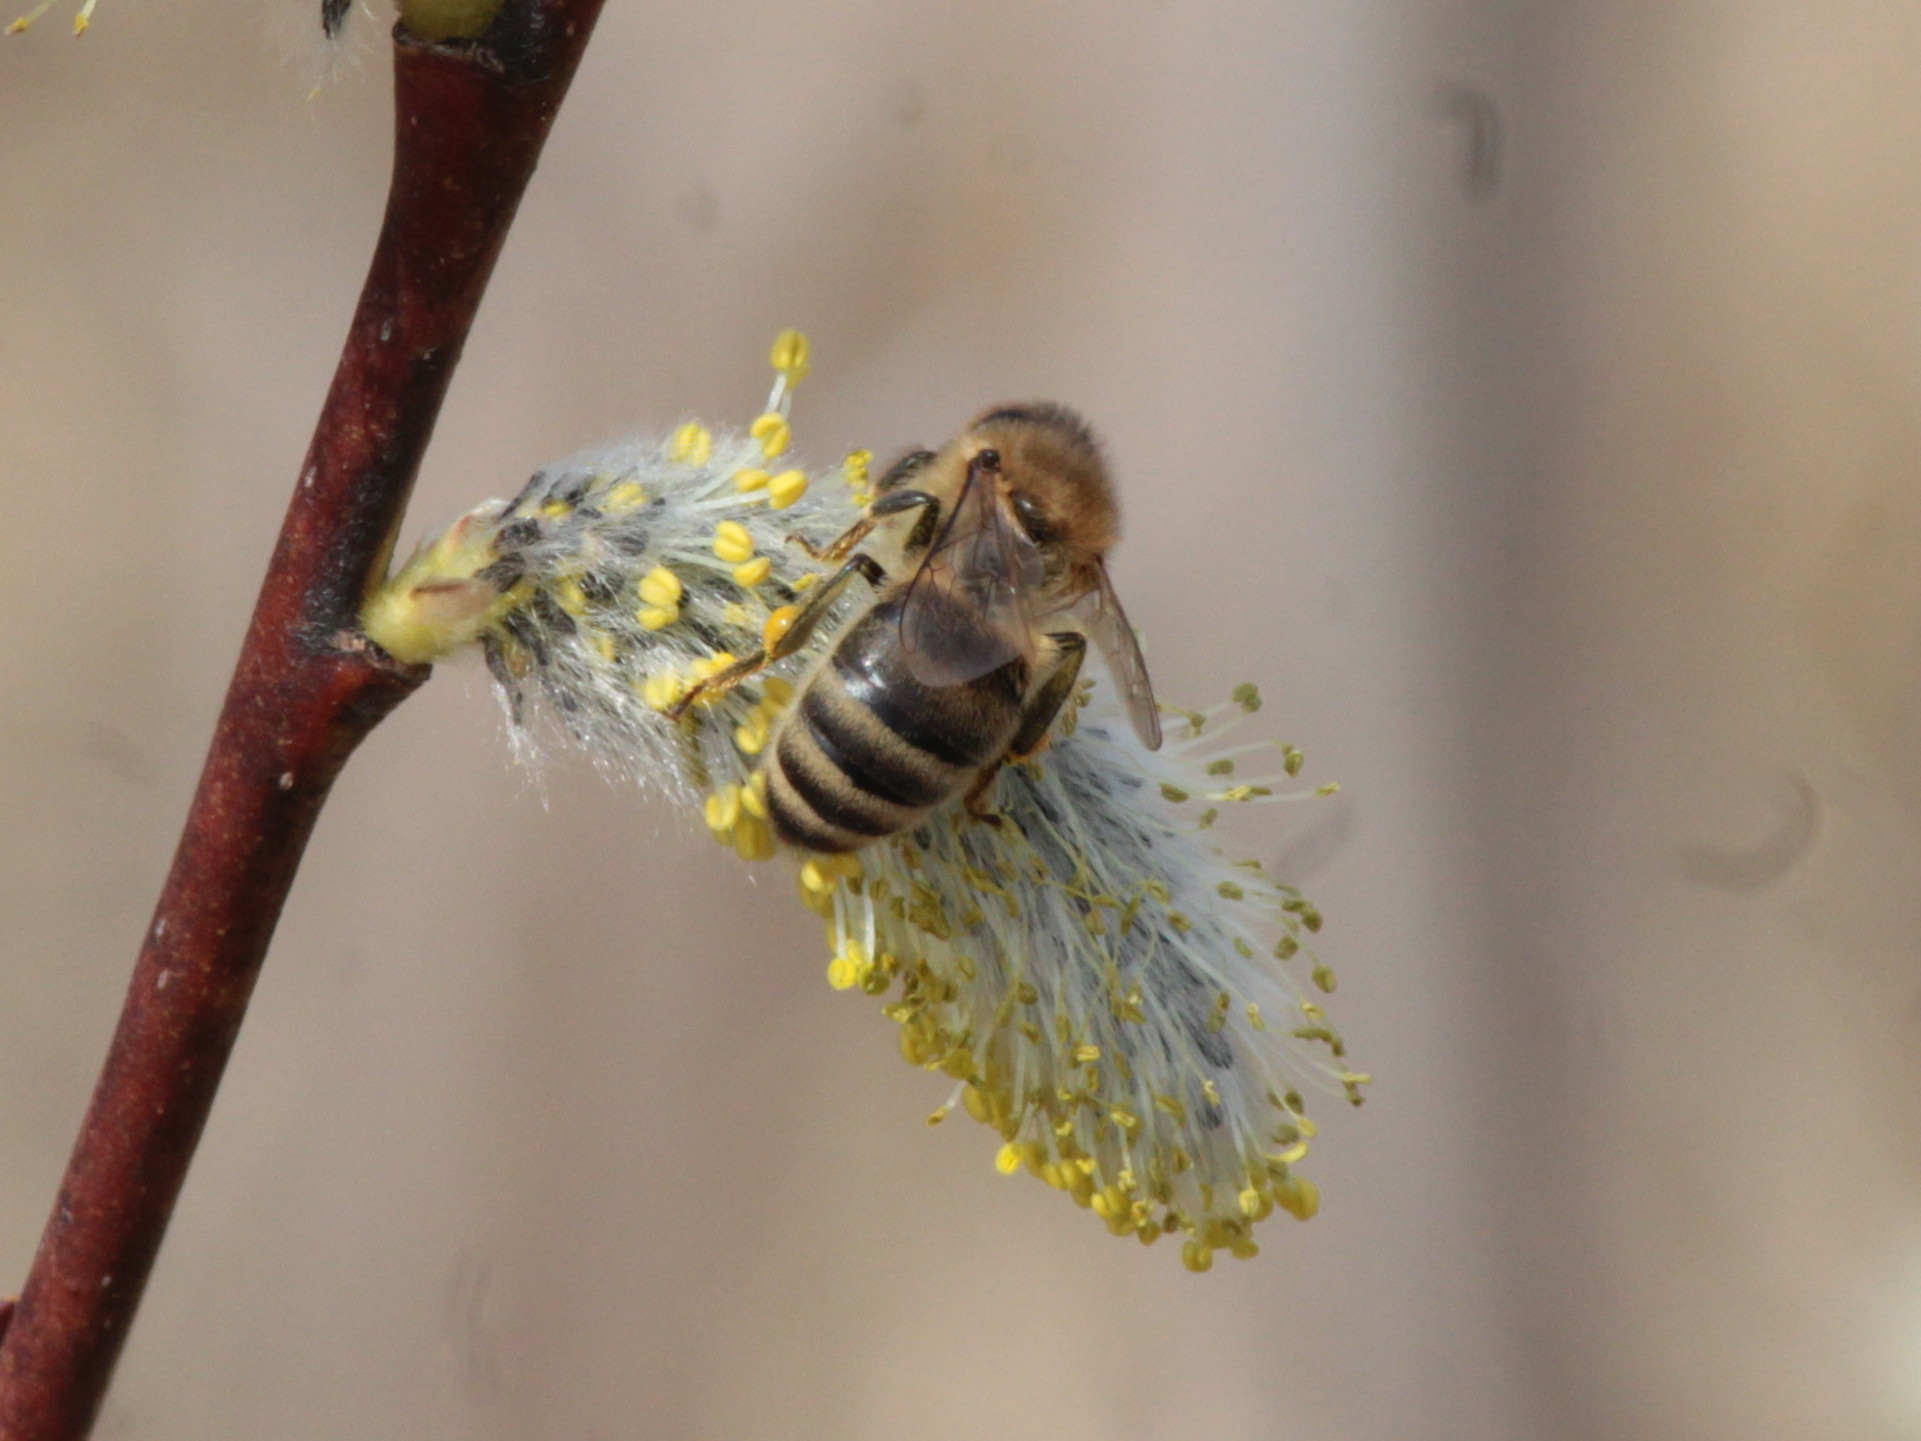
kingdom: Animalia
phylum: Arthropoda
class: Insecta
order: Hymenoptera
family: Apidae
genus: Apis
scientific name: Apis mellifera
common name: Honey bee
